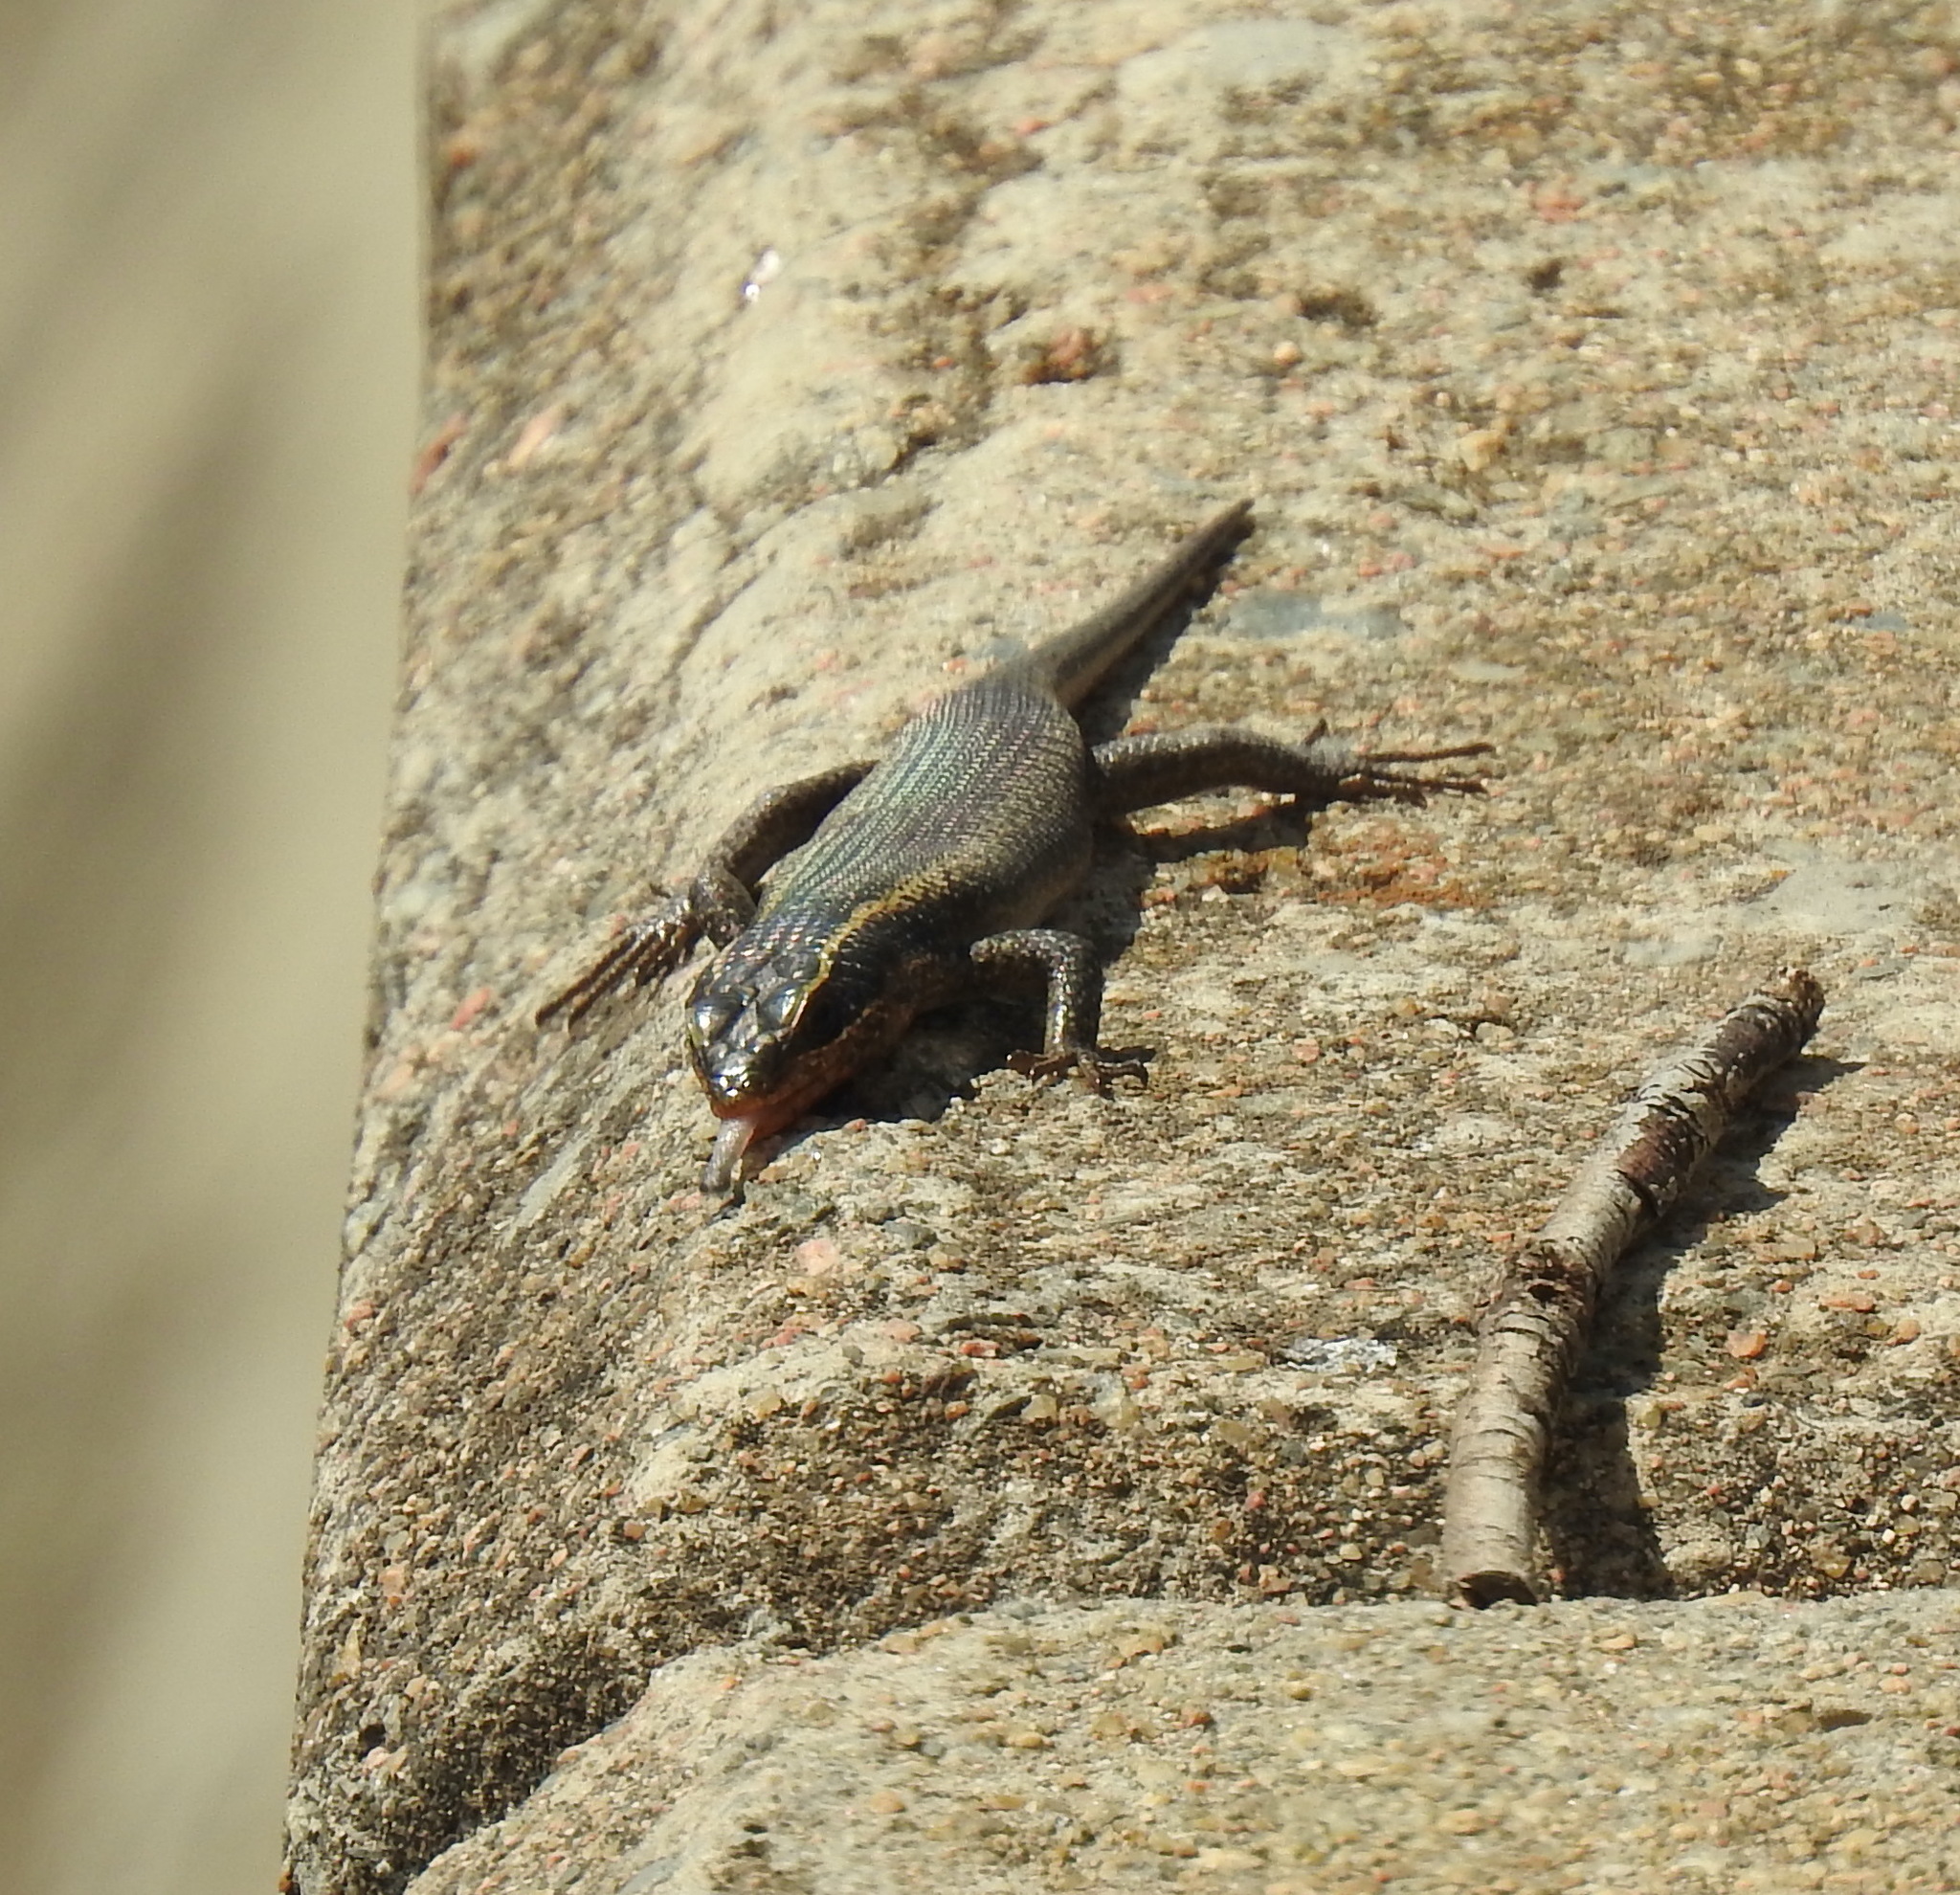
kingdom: Animalia
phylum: Chordata
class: Squamata
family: Scincidae
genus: Trachylepis
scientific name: Trachylepis punctatissima
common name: Montane speckled skink
